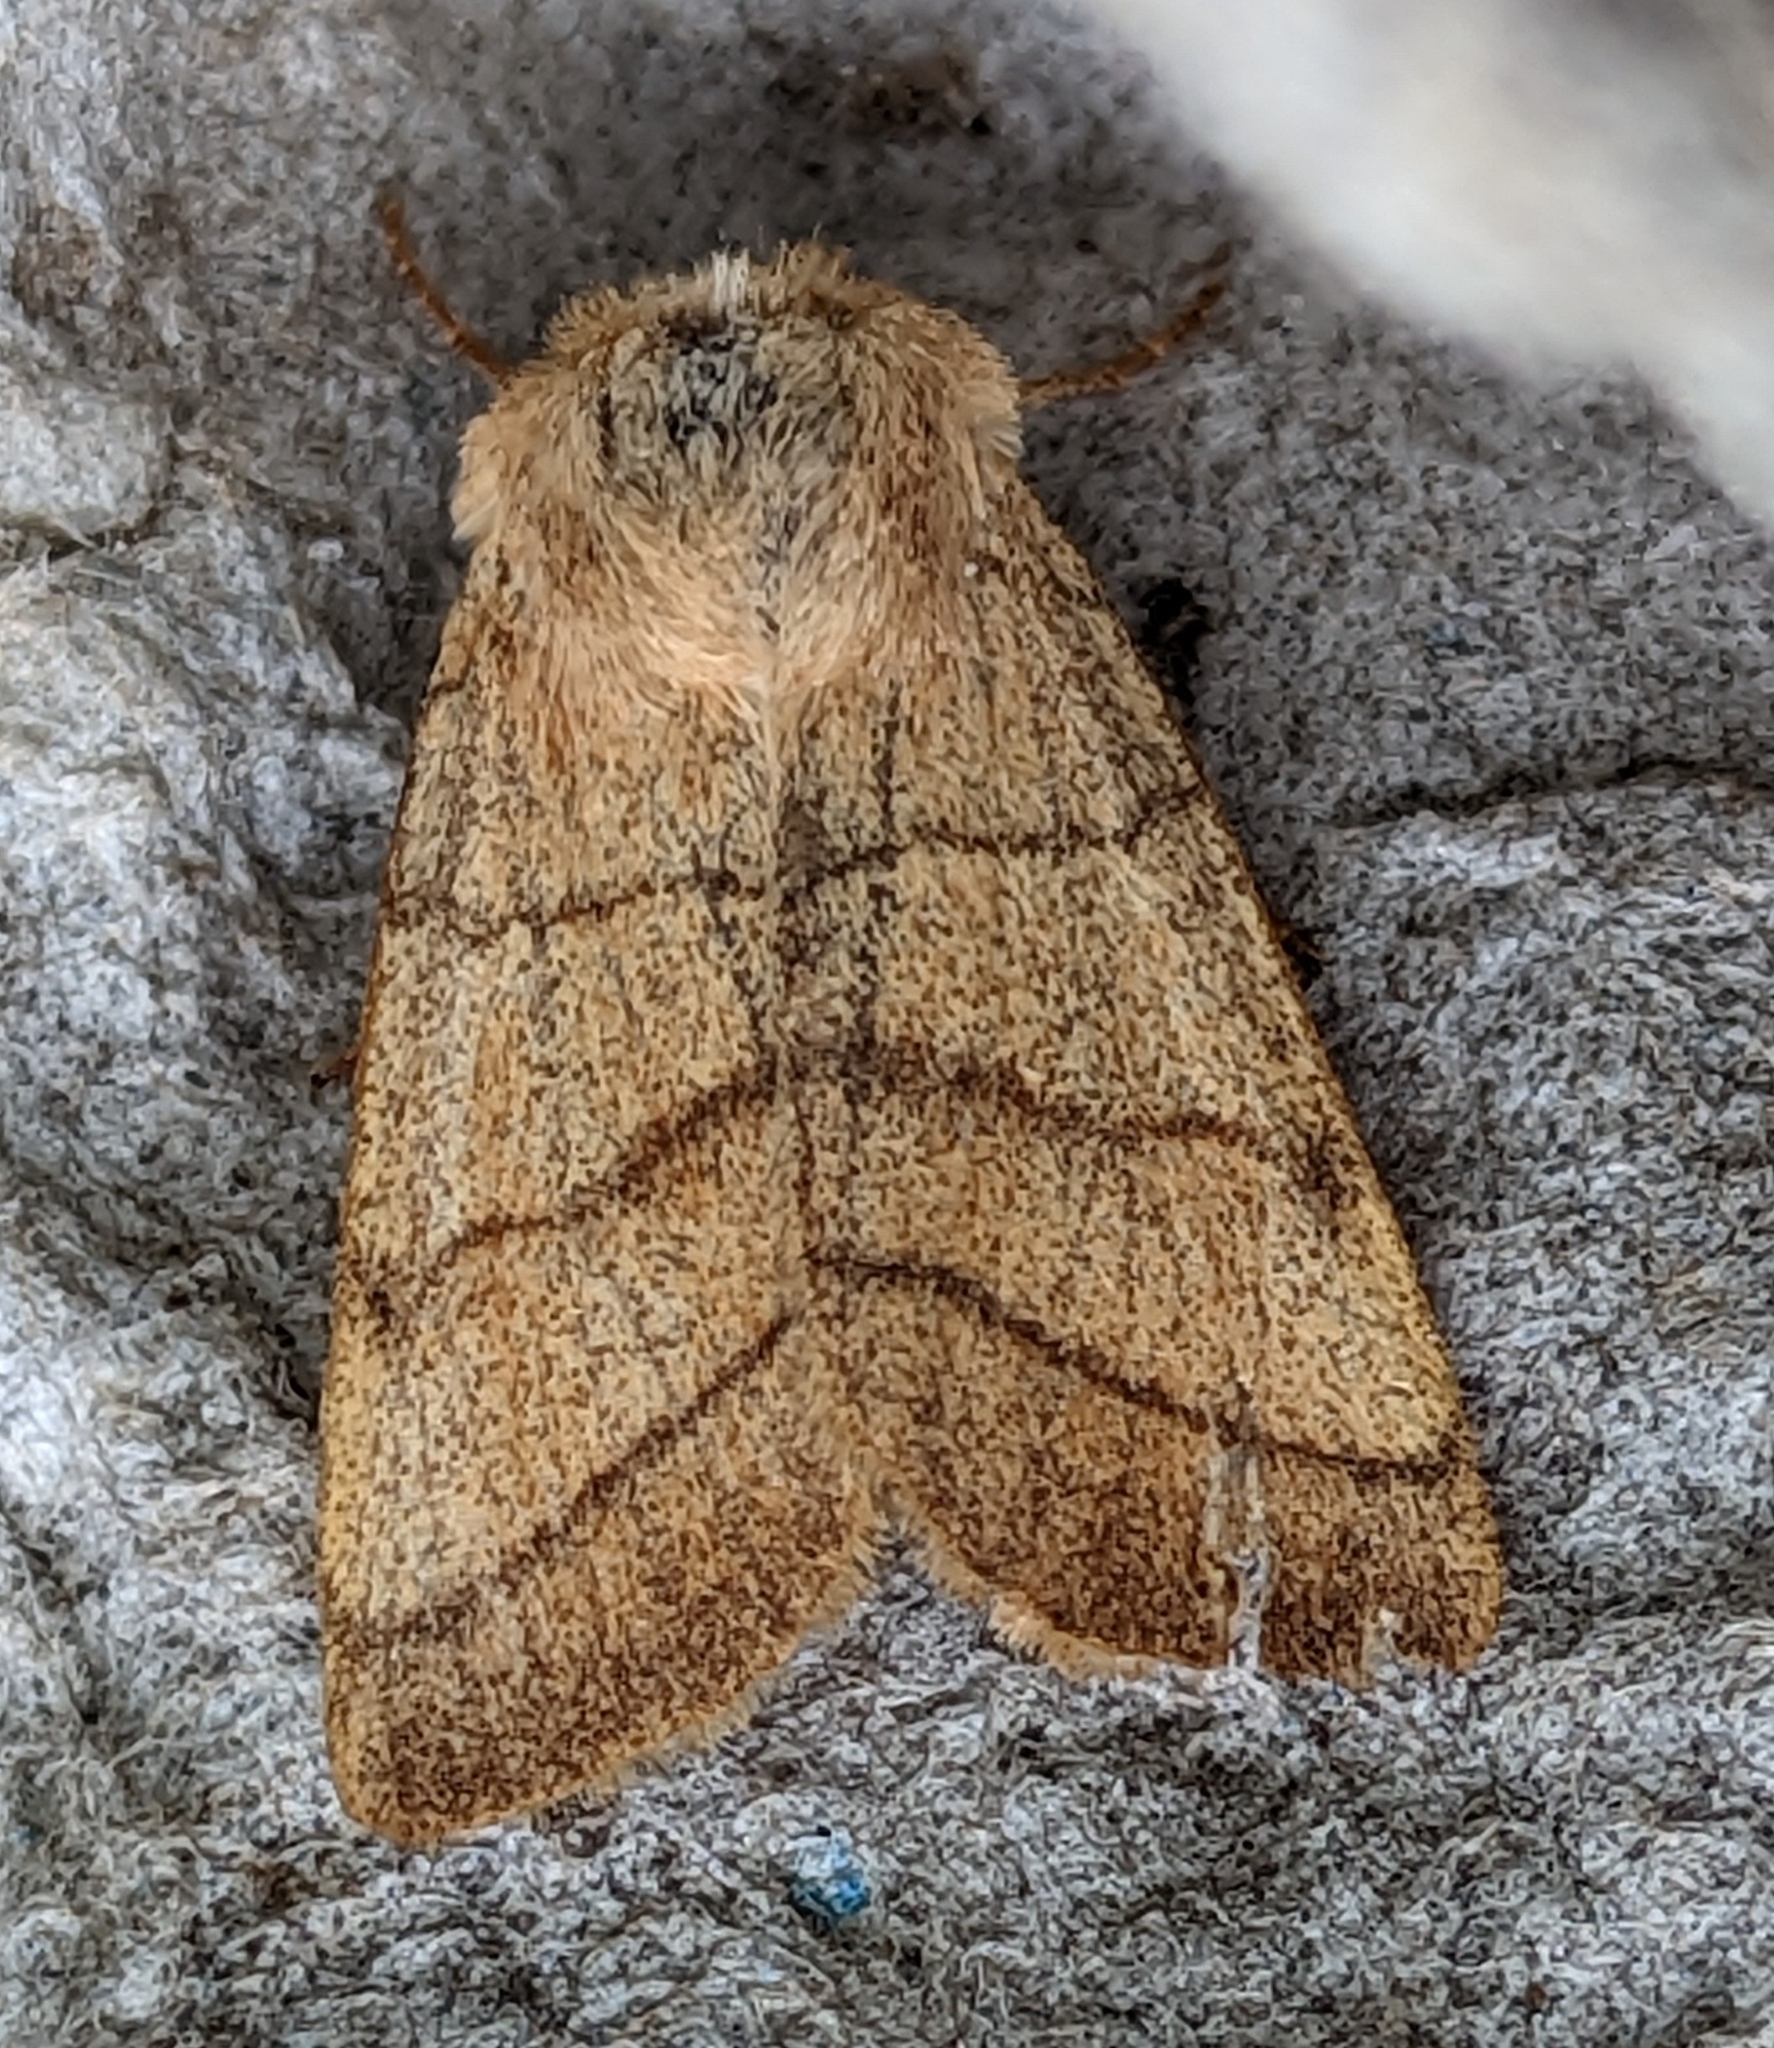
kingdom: Animalia
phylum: Arthropoda
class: Insecta
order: Lepidoptera
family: Noctuidae
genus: Charanyca
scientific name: Charanyca trigrammica
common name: Treble lines
